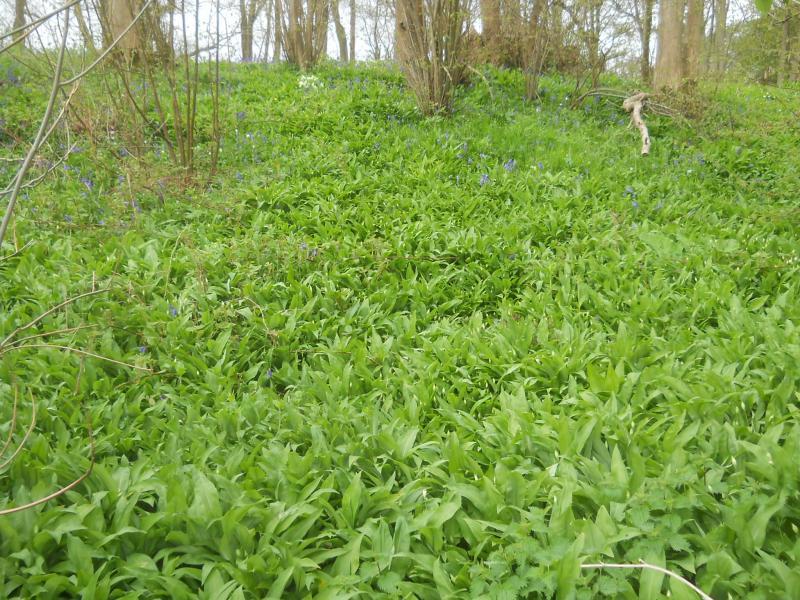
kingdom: Plantae
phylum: Tracheophyta
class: Liliopsida
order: Asparagales
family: Amaryllidaceae
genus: Allium
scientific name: Allium ursinum
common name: Ramsons
